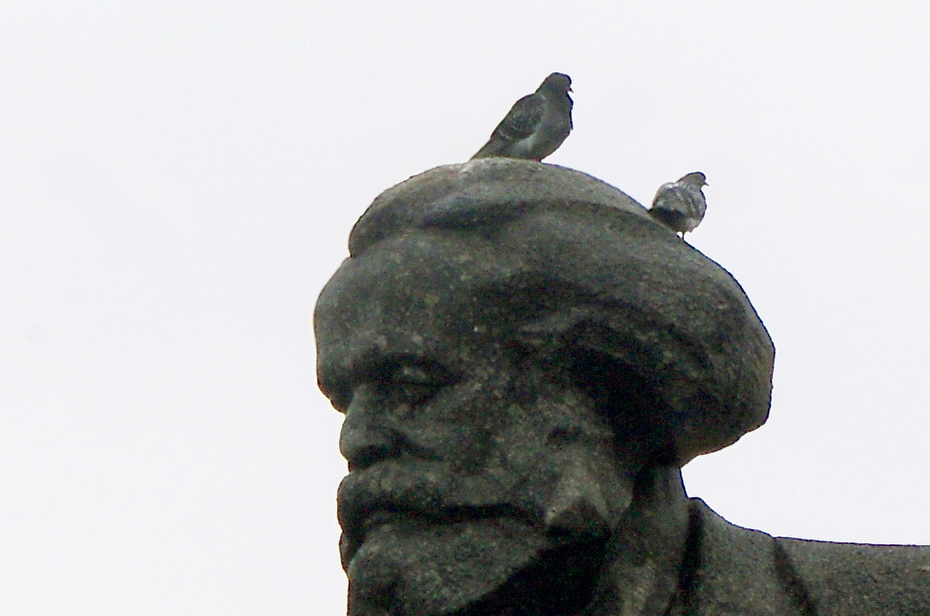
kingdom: Animalia
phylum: Chordata
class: Aves
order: Columbiformes
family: Columbidae
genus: Columba
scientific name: Columba livia
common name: Rock pigeon
